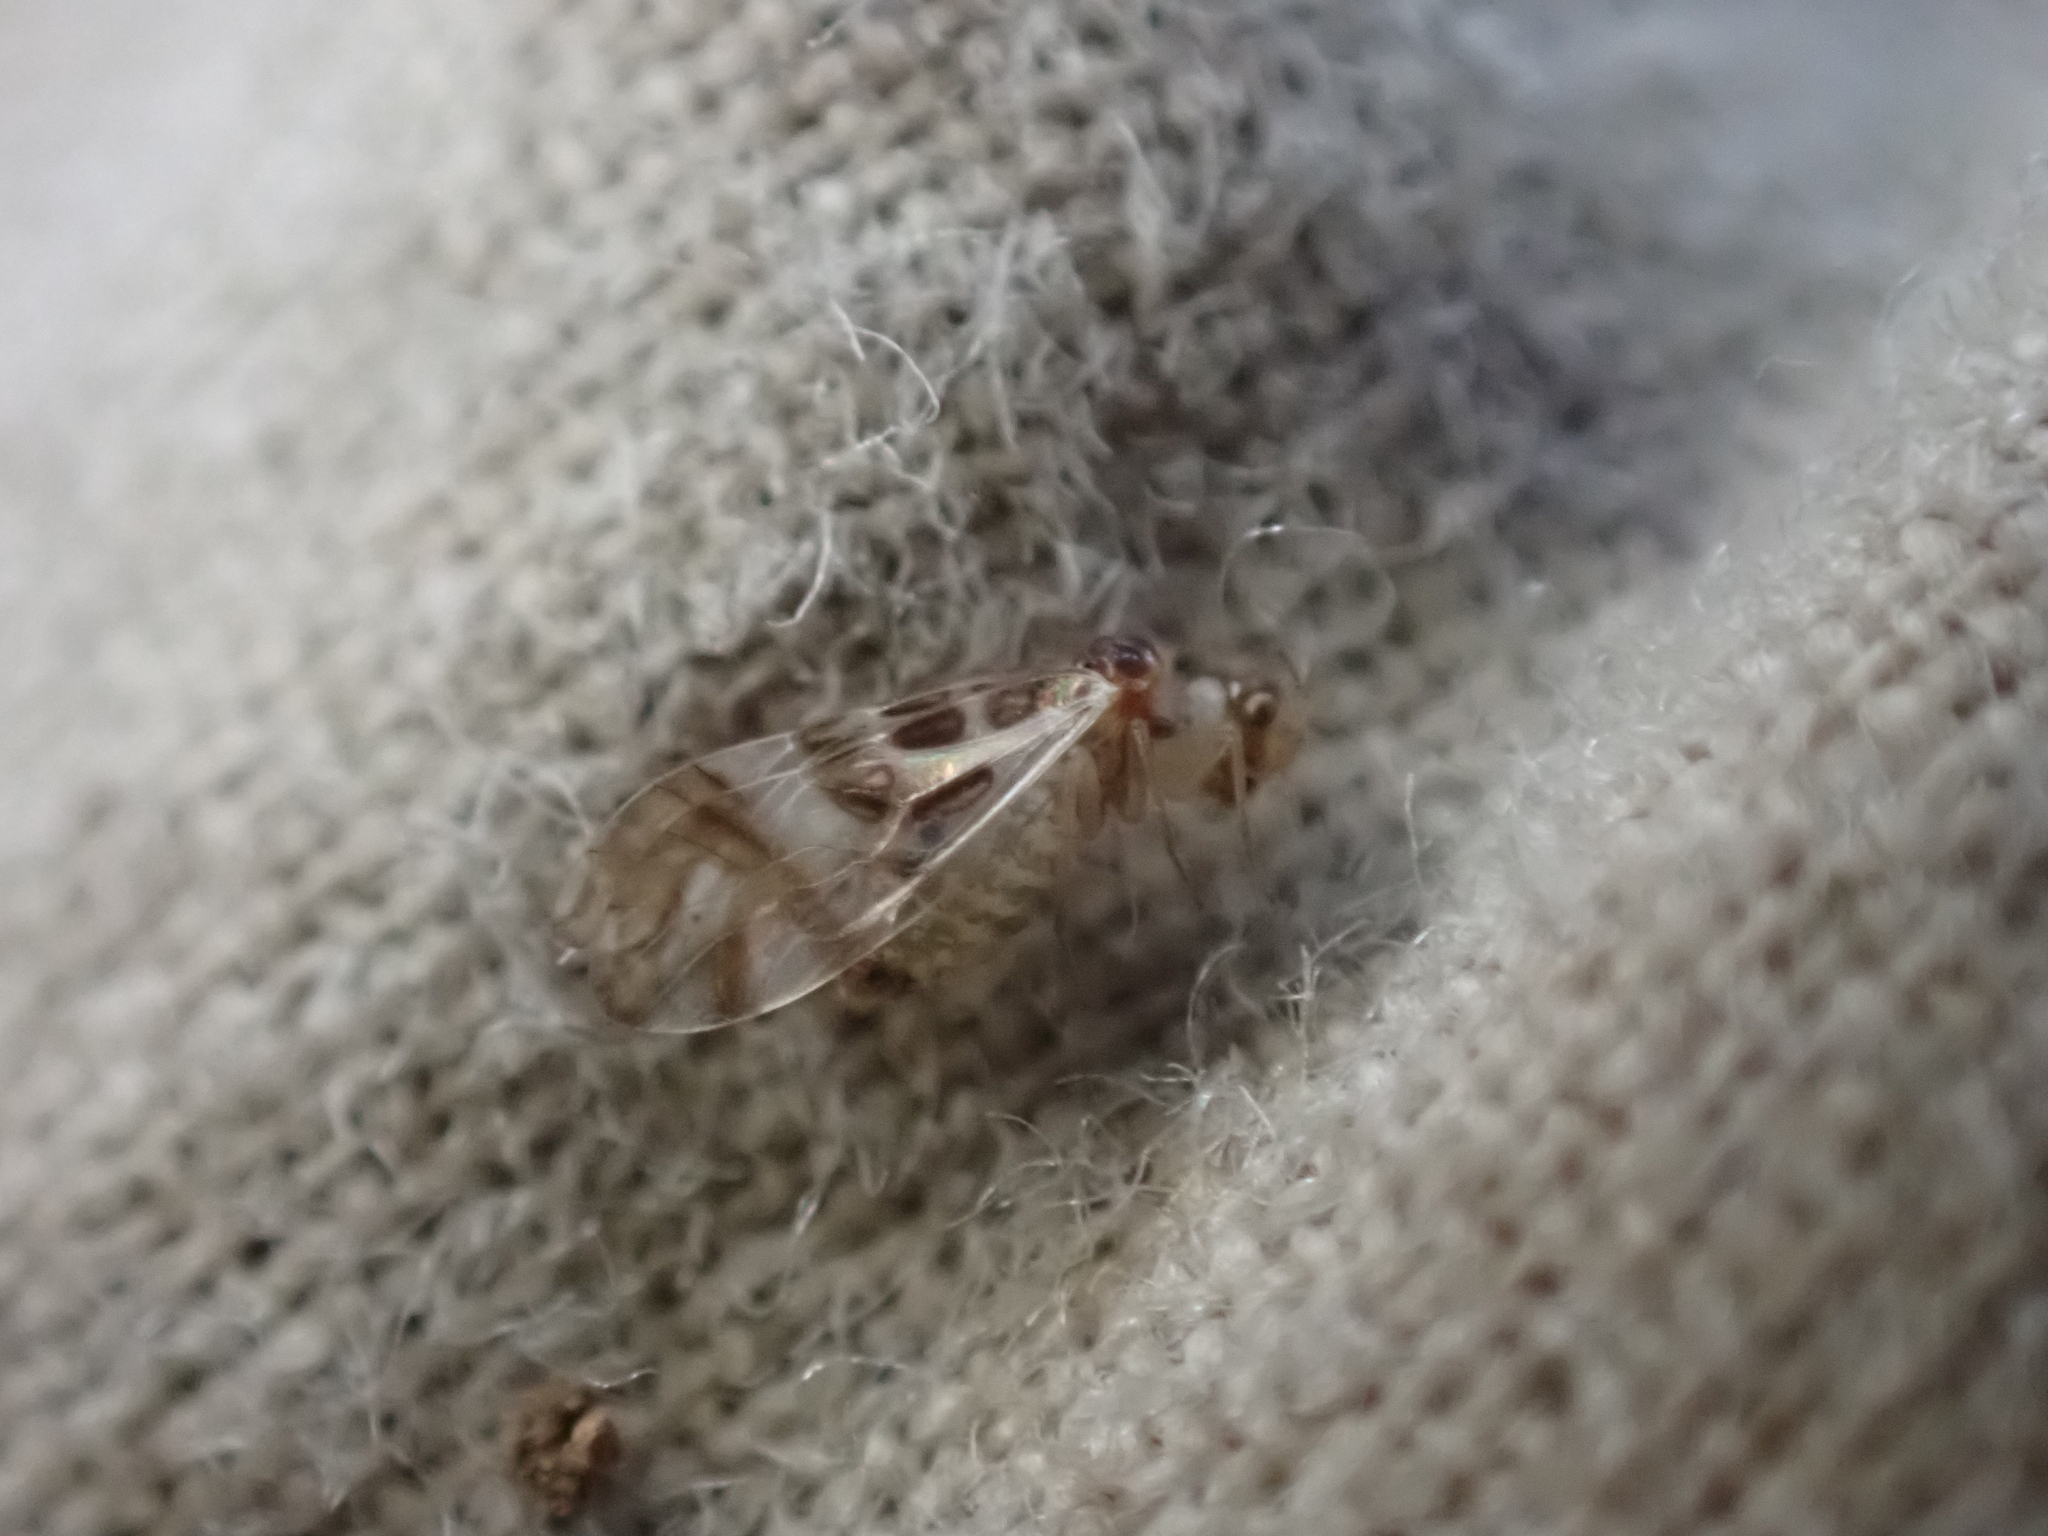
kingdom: Animalia
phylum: Arthropoda
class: Insecta
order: Psocodea
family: Stenopsocidae
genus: Graphopsocus
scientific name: Graphopsocus cruciatus
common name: Lizard bark louse
